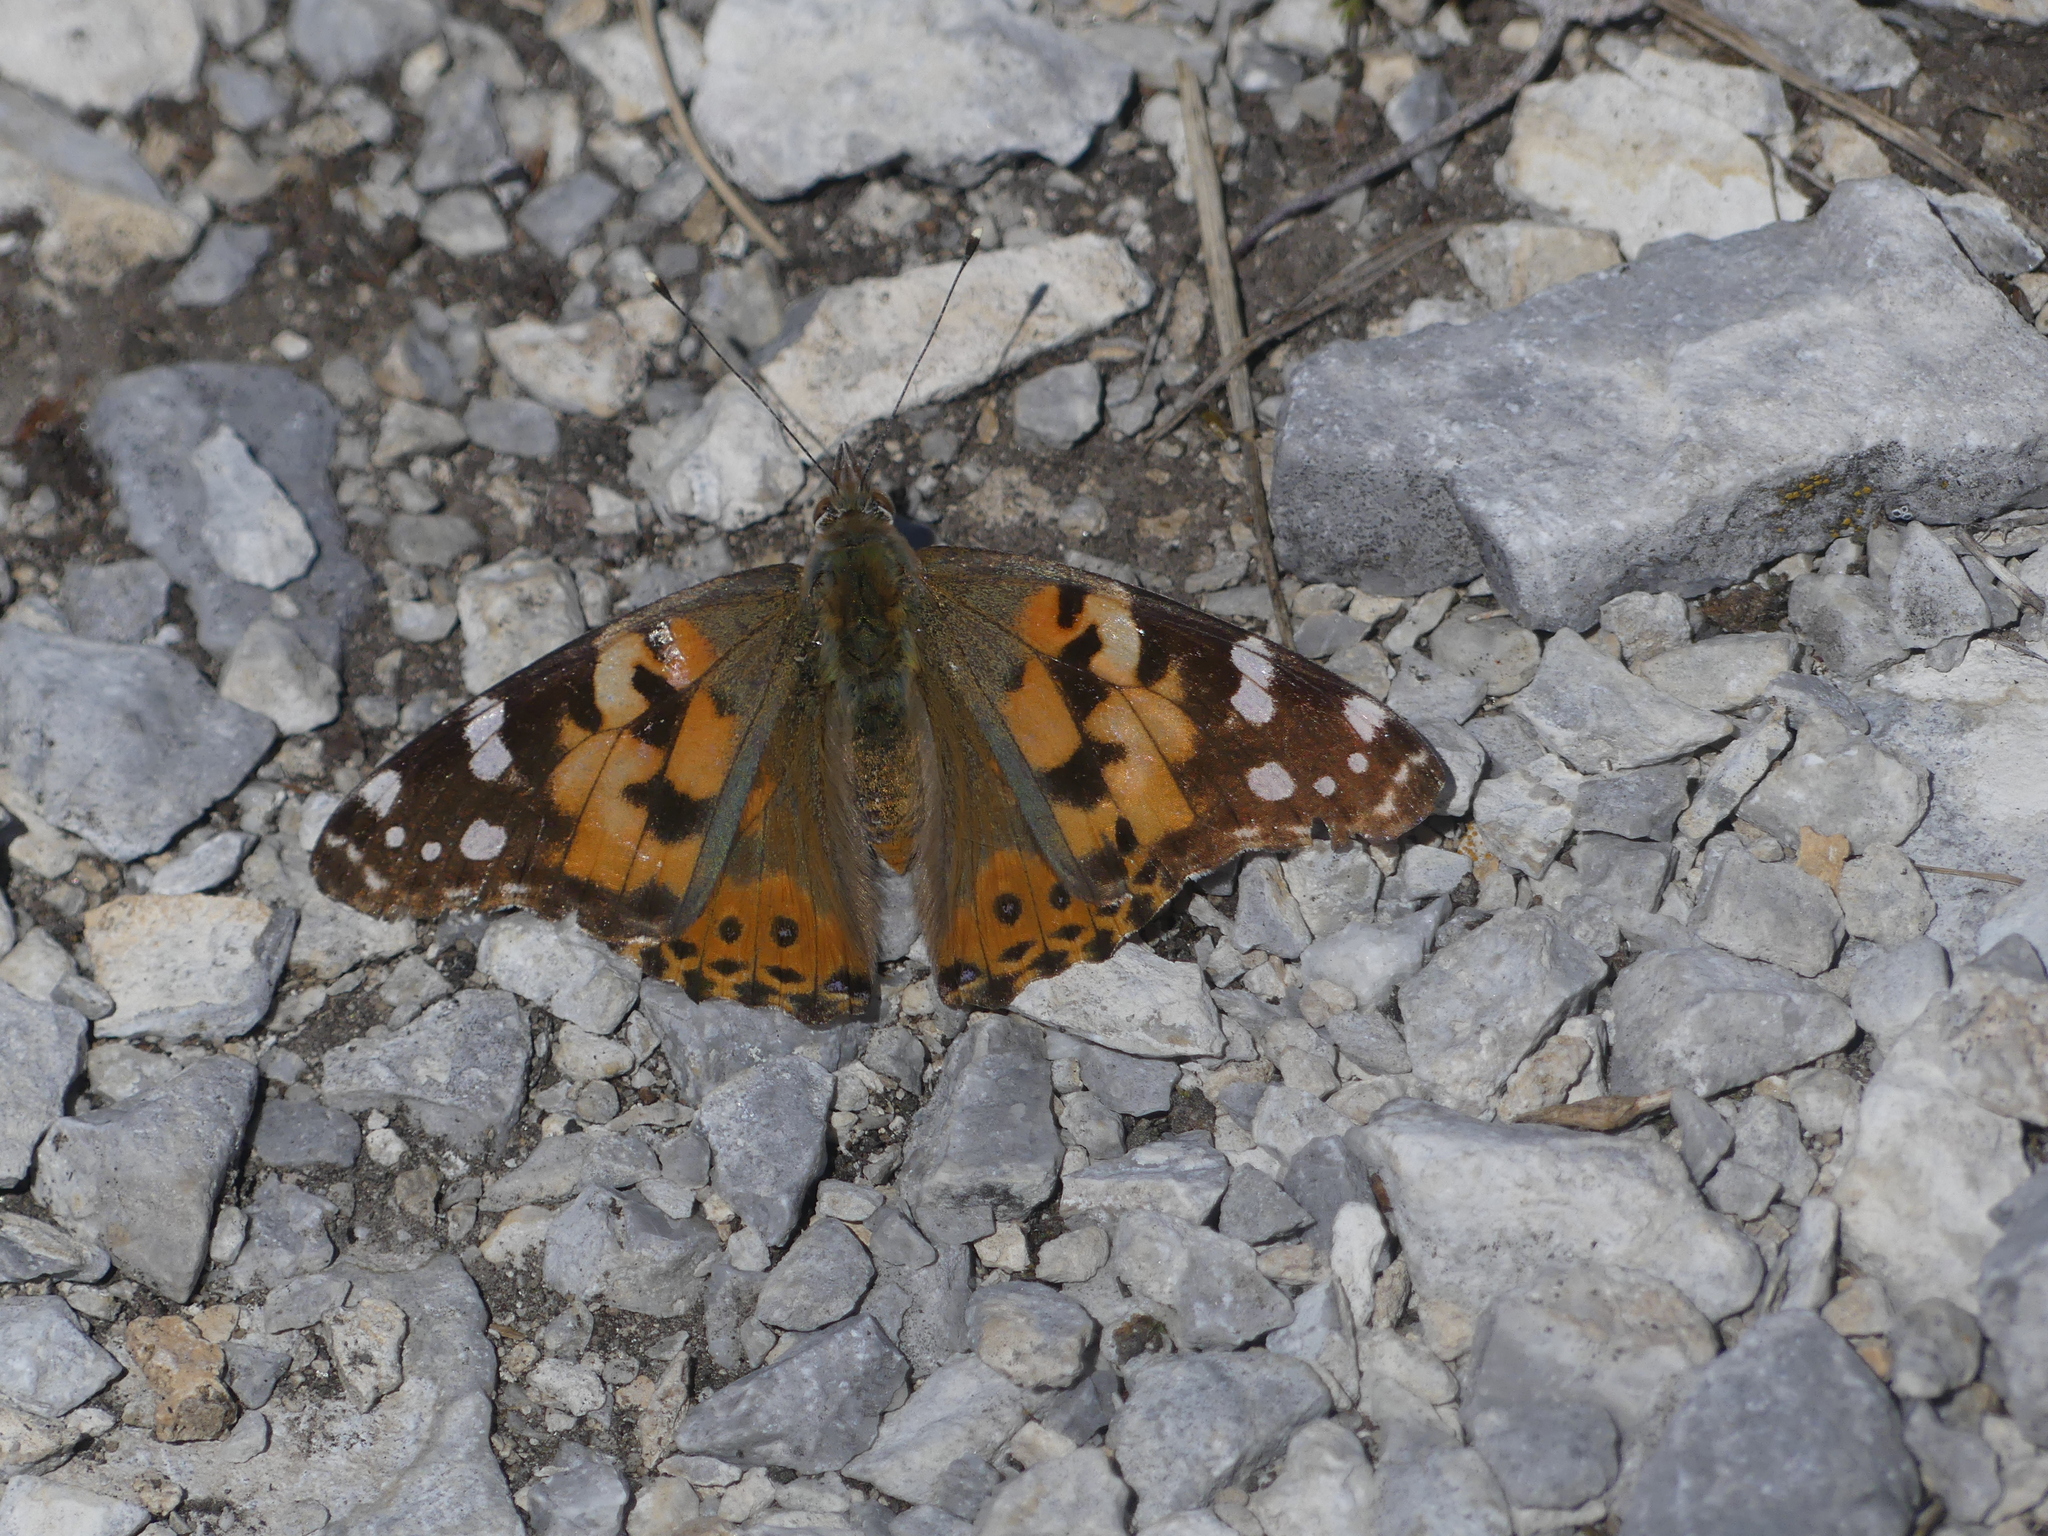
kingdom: Animalia
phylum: Arthropoda
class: Insecta
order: Lepidoptera
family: Nymphalidae
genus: Vanessa
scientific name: Vanessa cardui
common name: Painted lady
